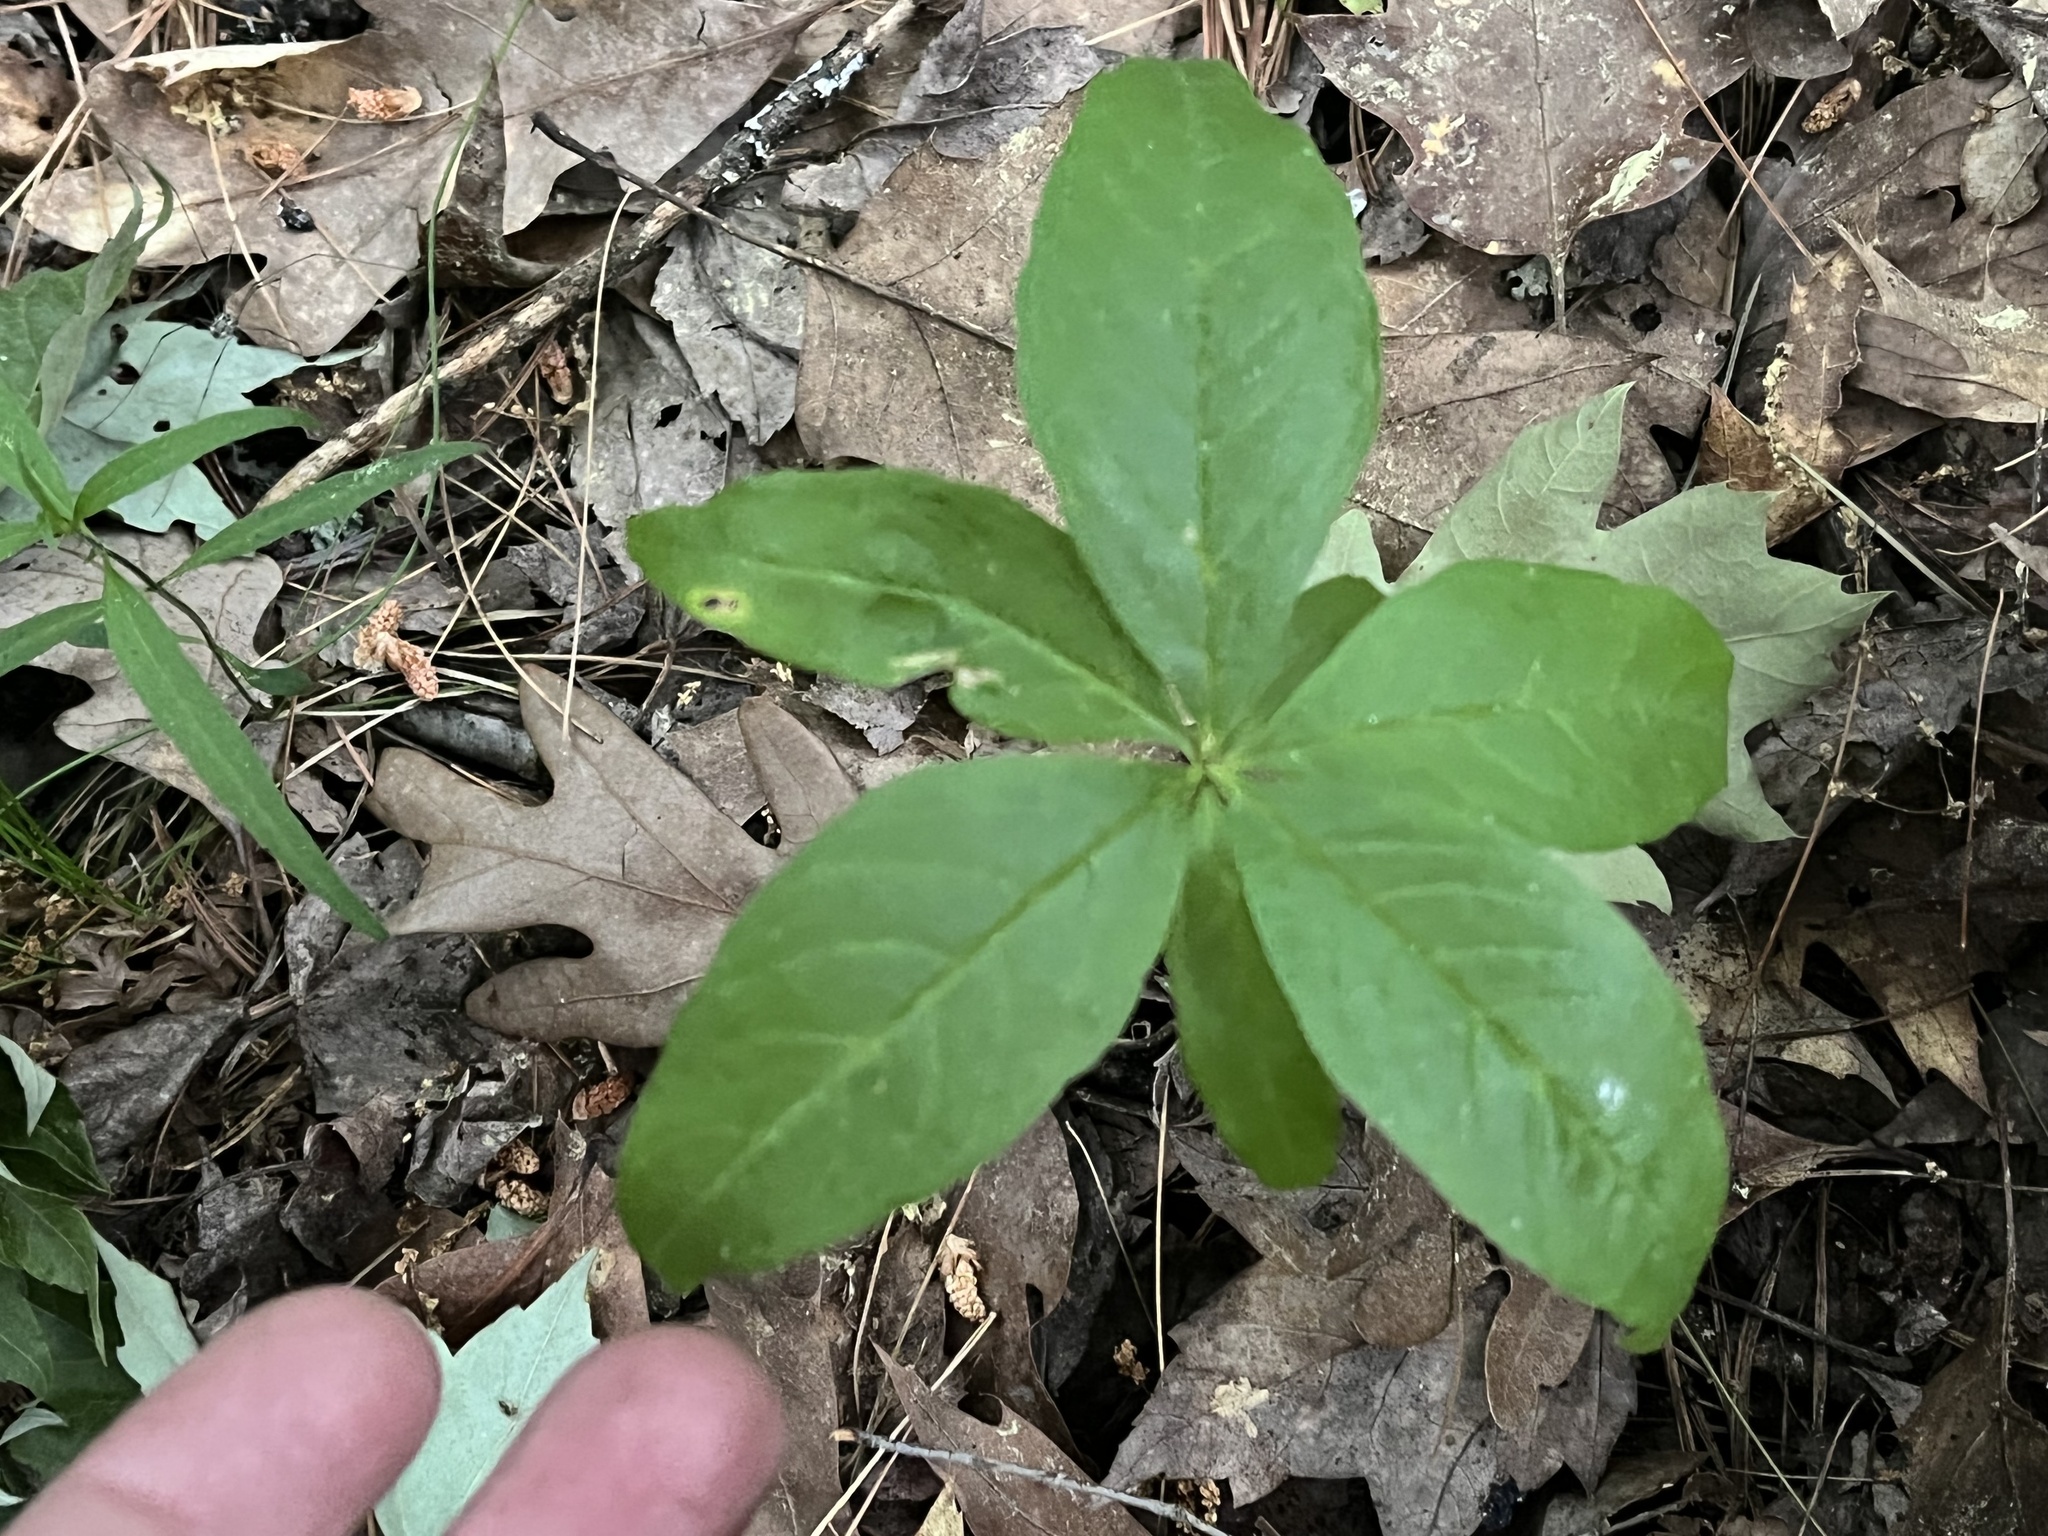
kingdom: Plantae
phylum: Tracheophyta
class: Magnoliopsida
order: Ericales
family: Primulaceae
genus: Lysimachia
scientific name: Lysimachia borealis
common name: American starflower
